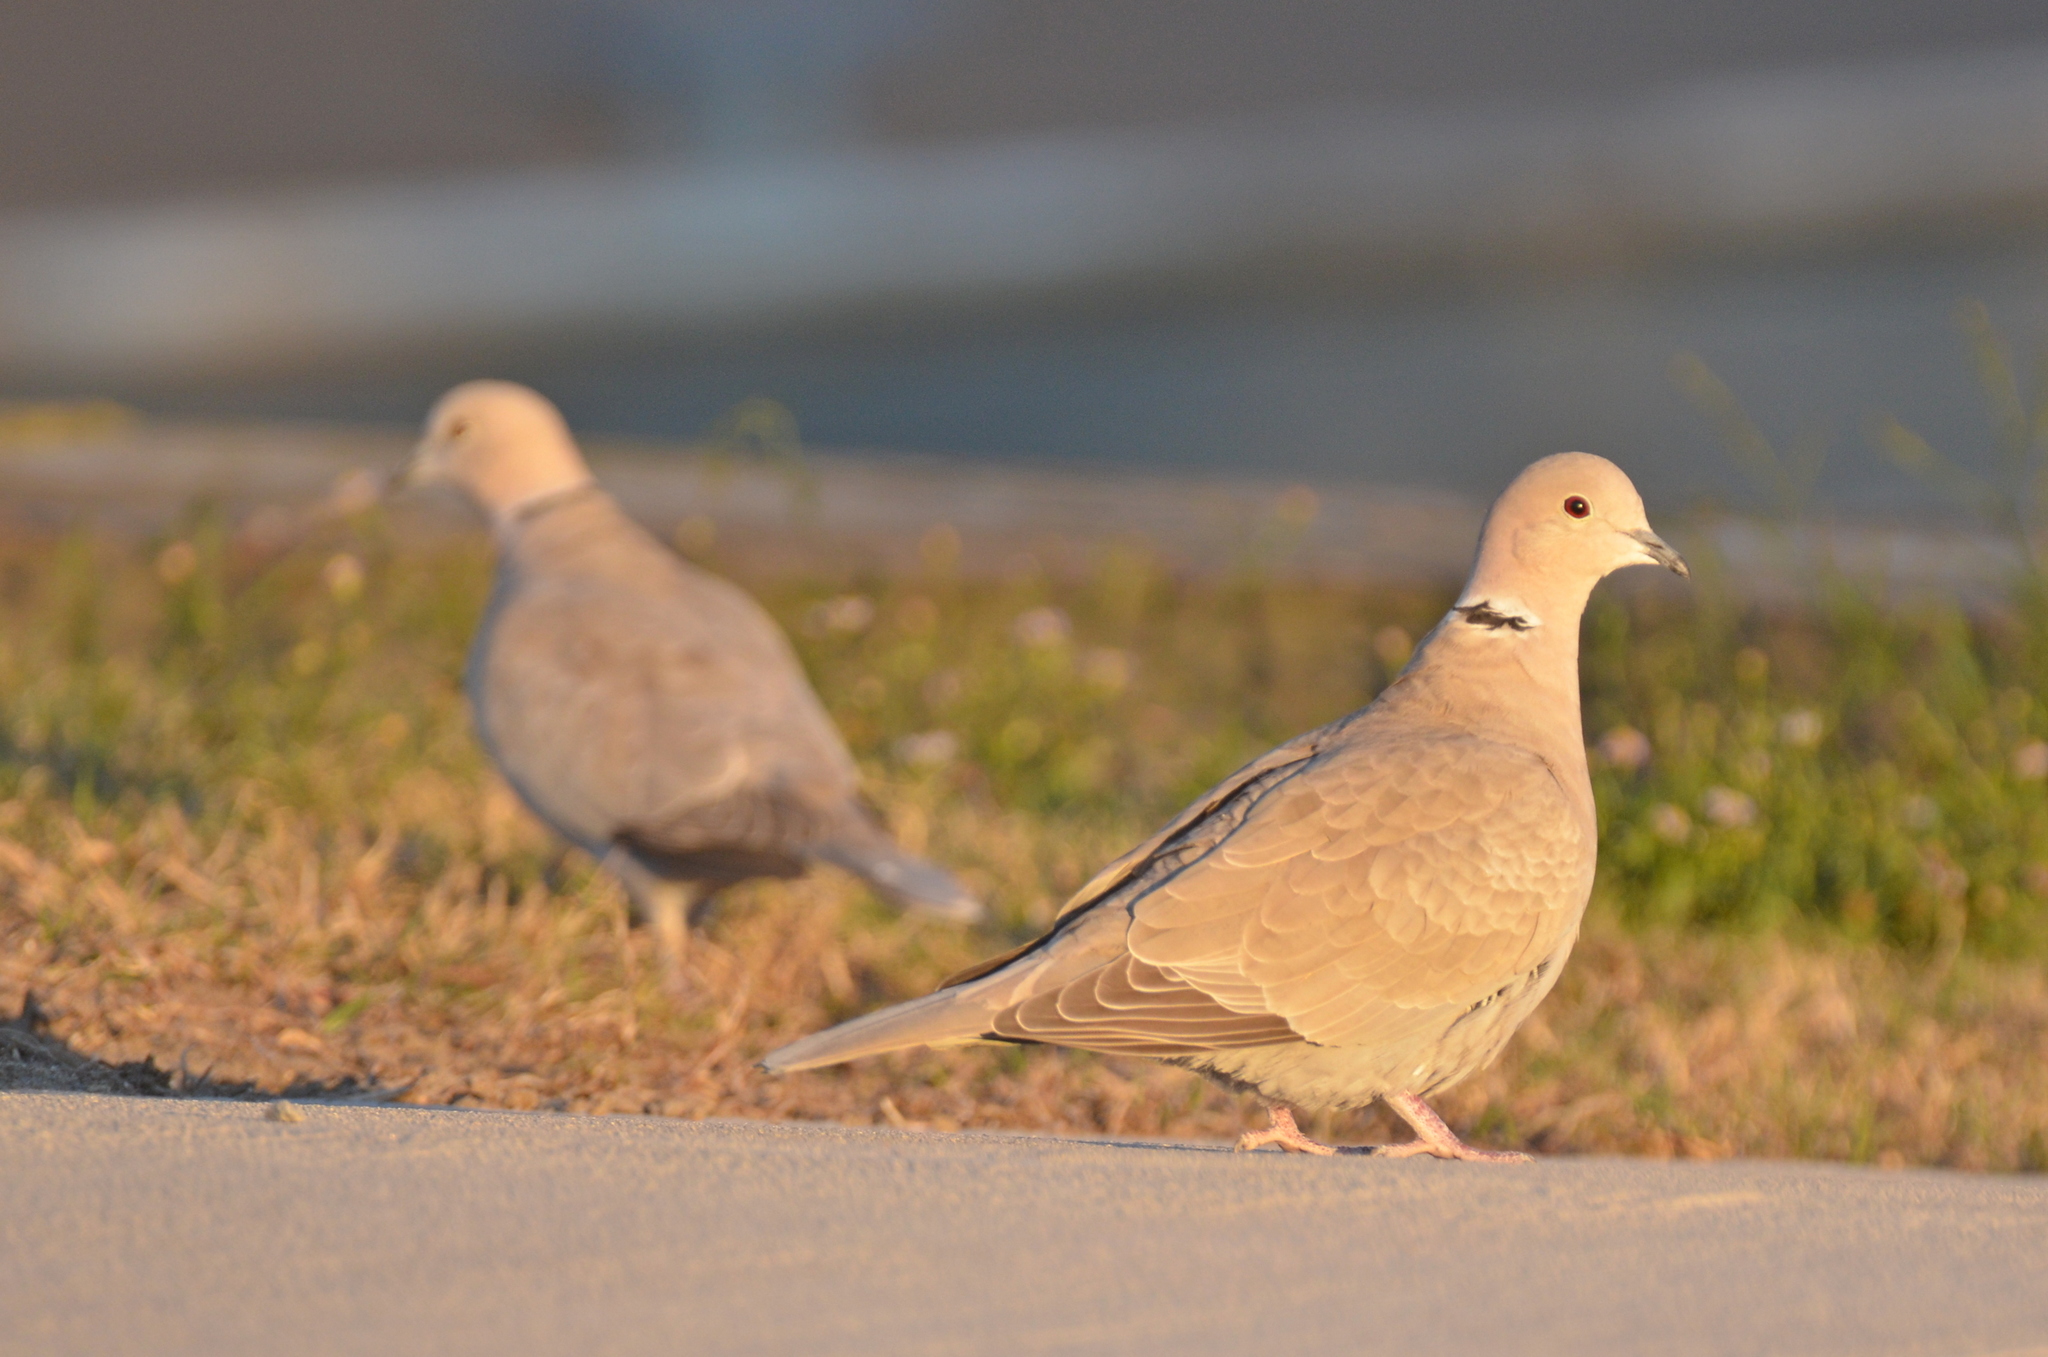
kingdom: Animalia
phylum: Chordata
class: Aves
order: Columbiformes
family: Columbidae
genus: Streptopelia
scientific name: Streptopelia decaocto
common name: Eurasian collared dove
